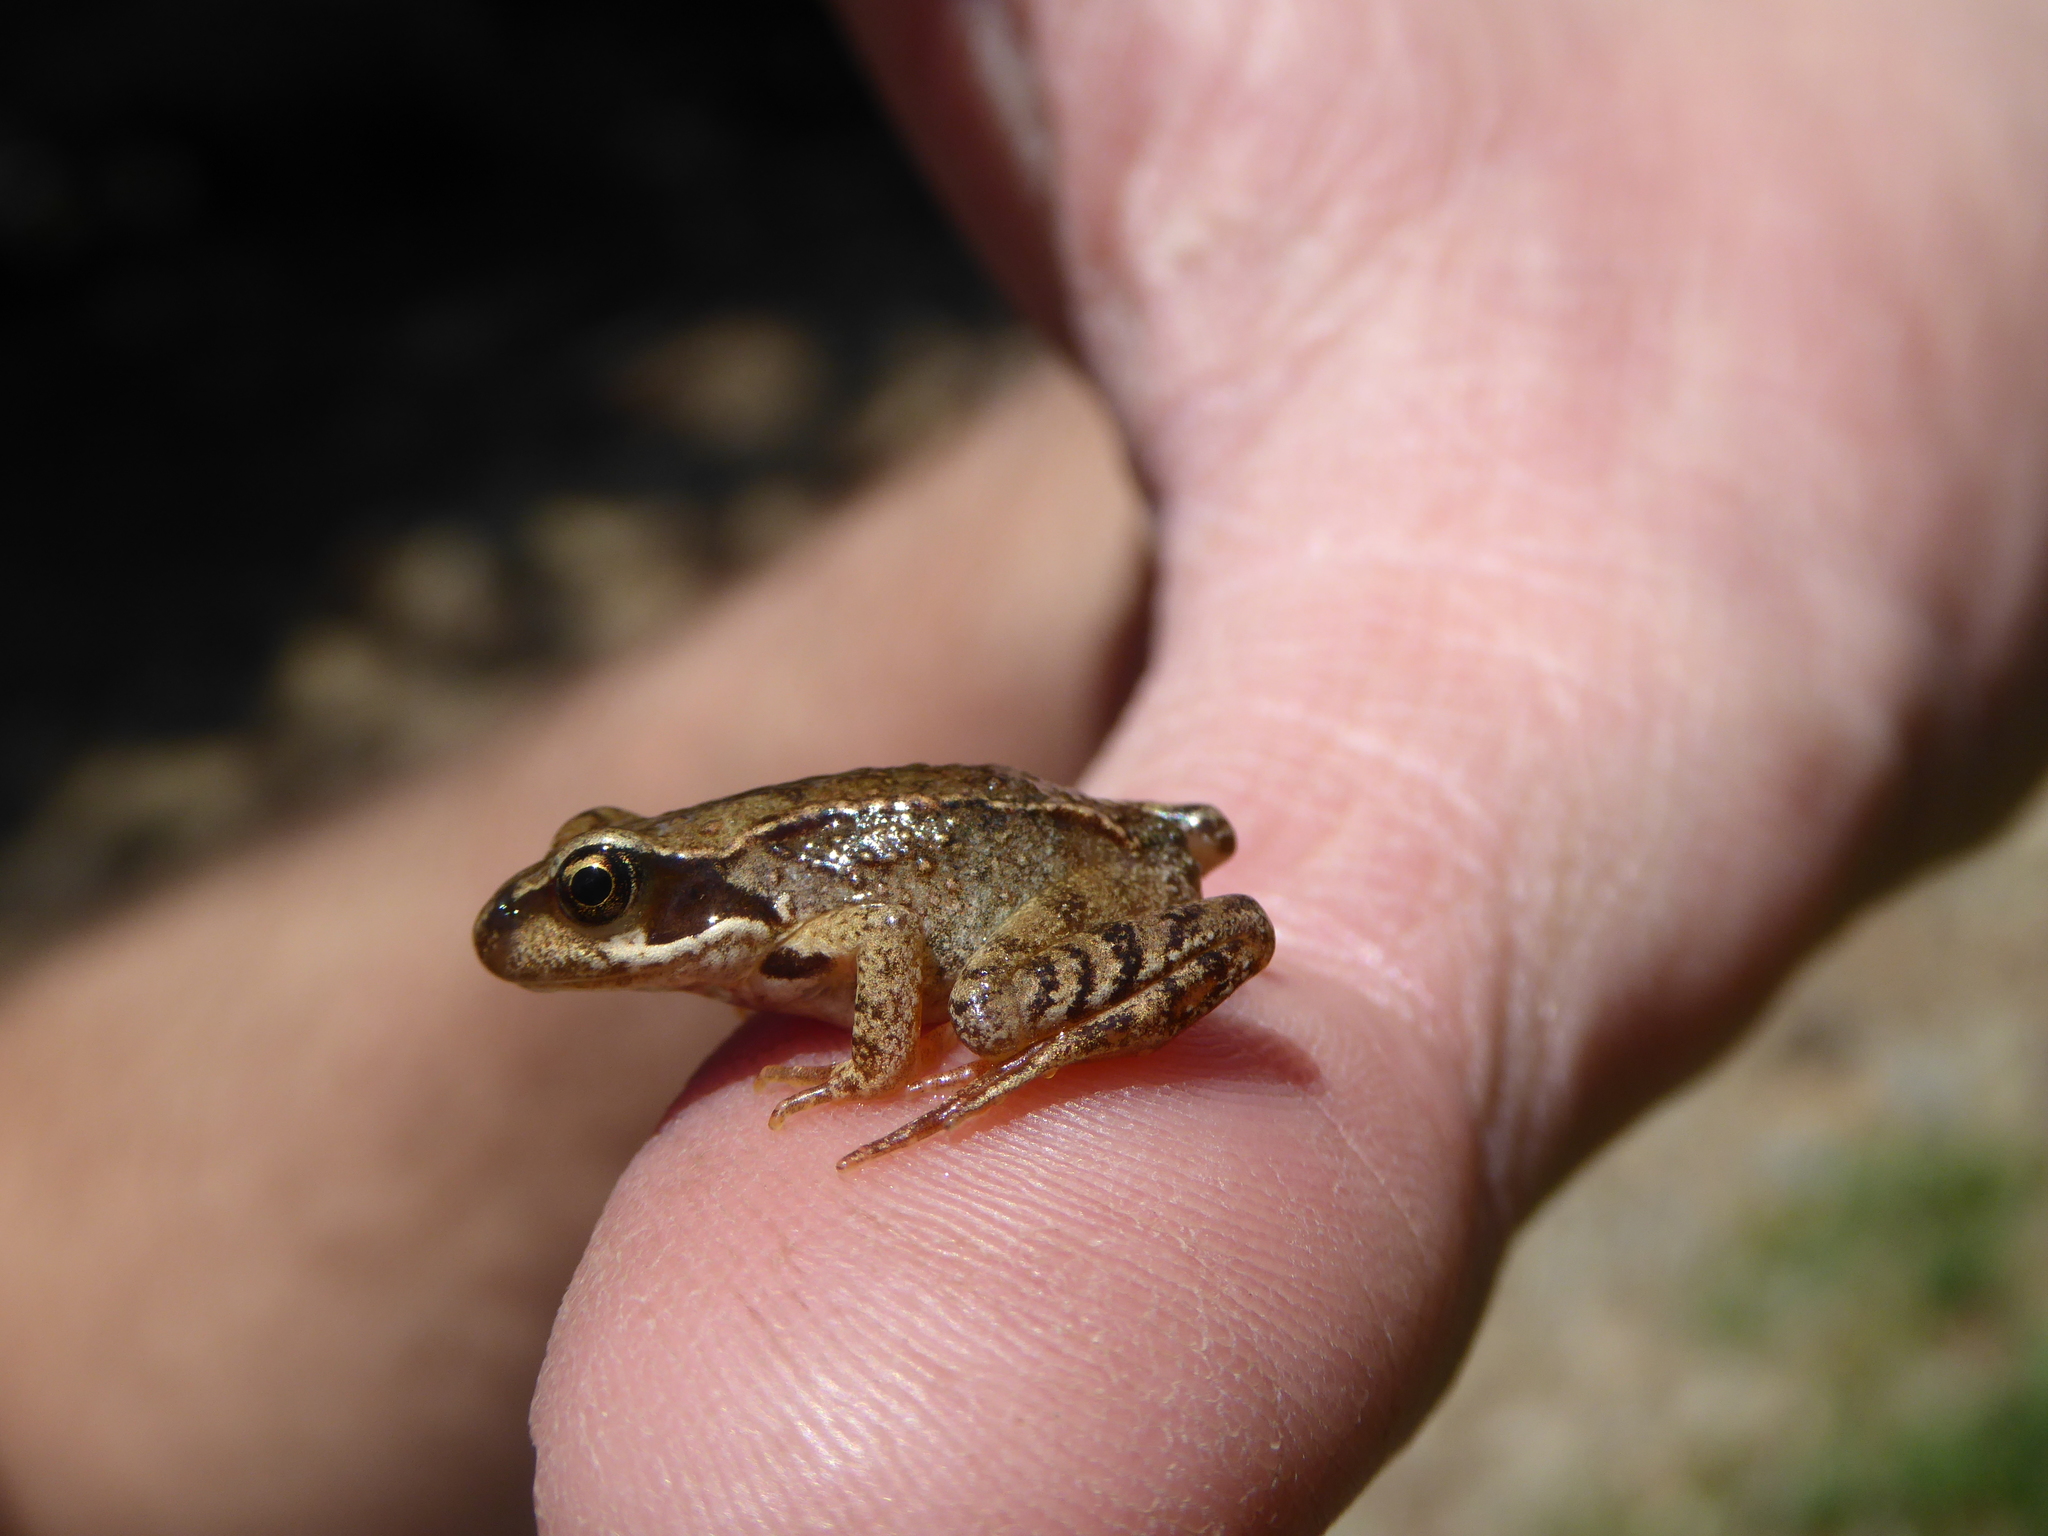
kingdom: Animalia
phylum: Chordata
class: Amphibia
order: Anura
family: Ranidae
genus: Rana
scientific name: Rana temporaria
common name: Common frog
